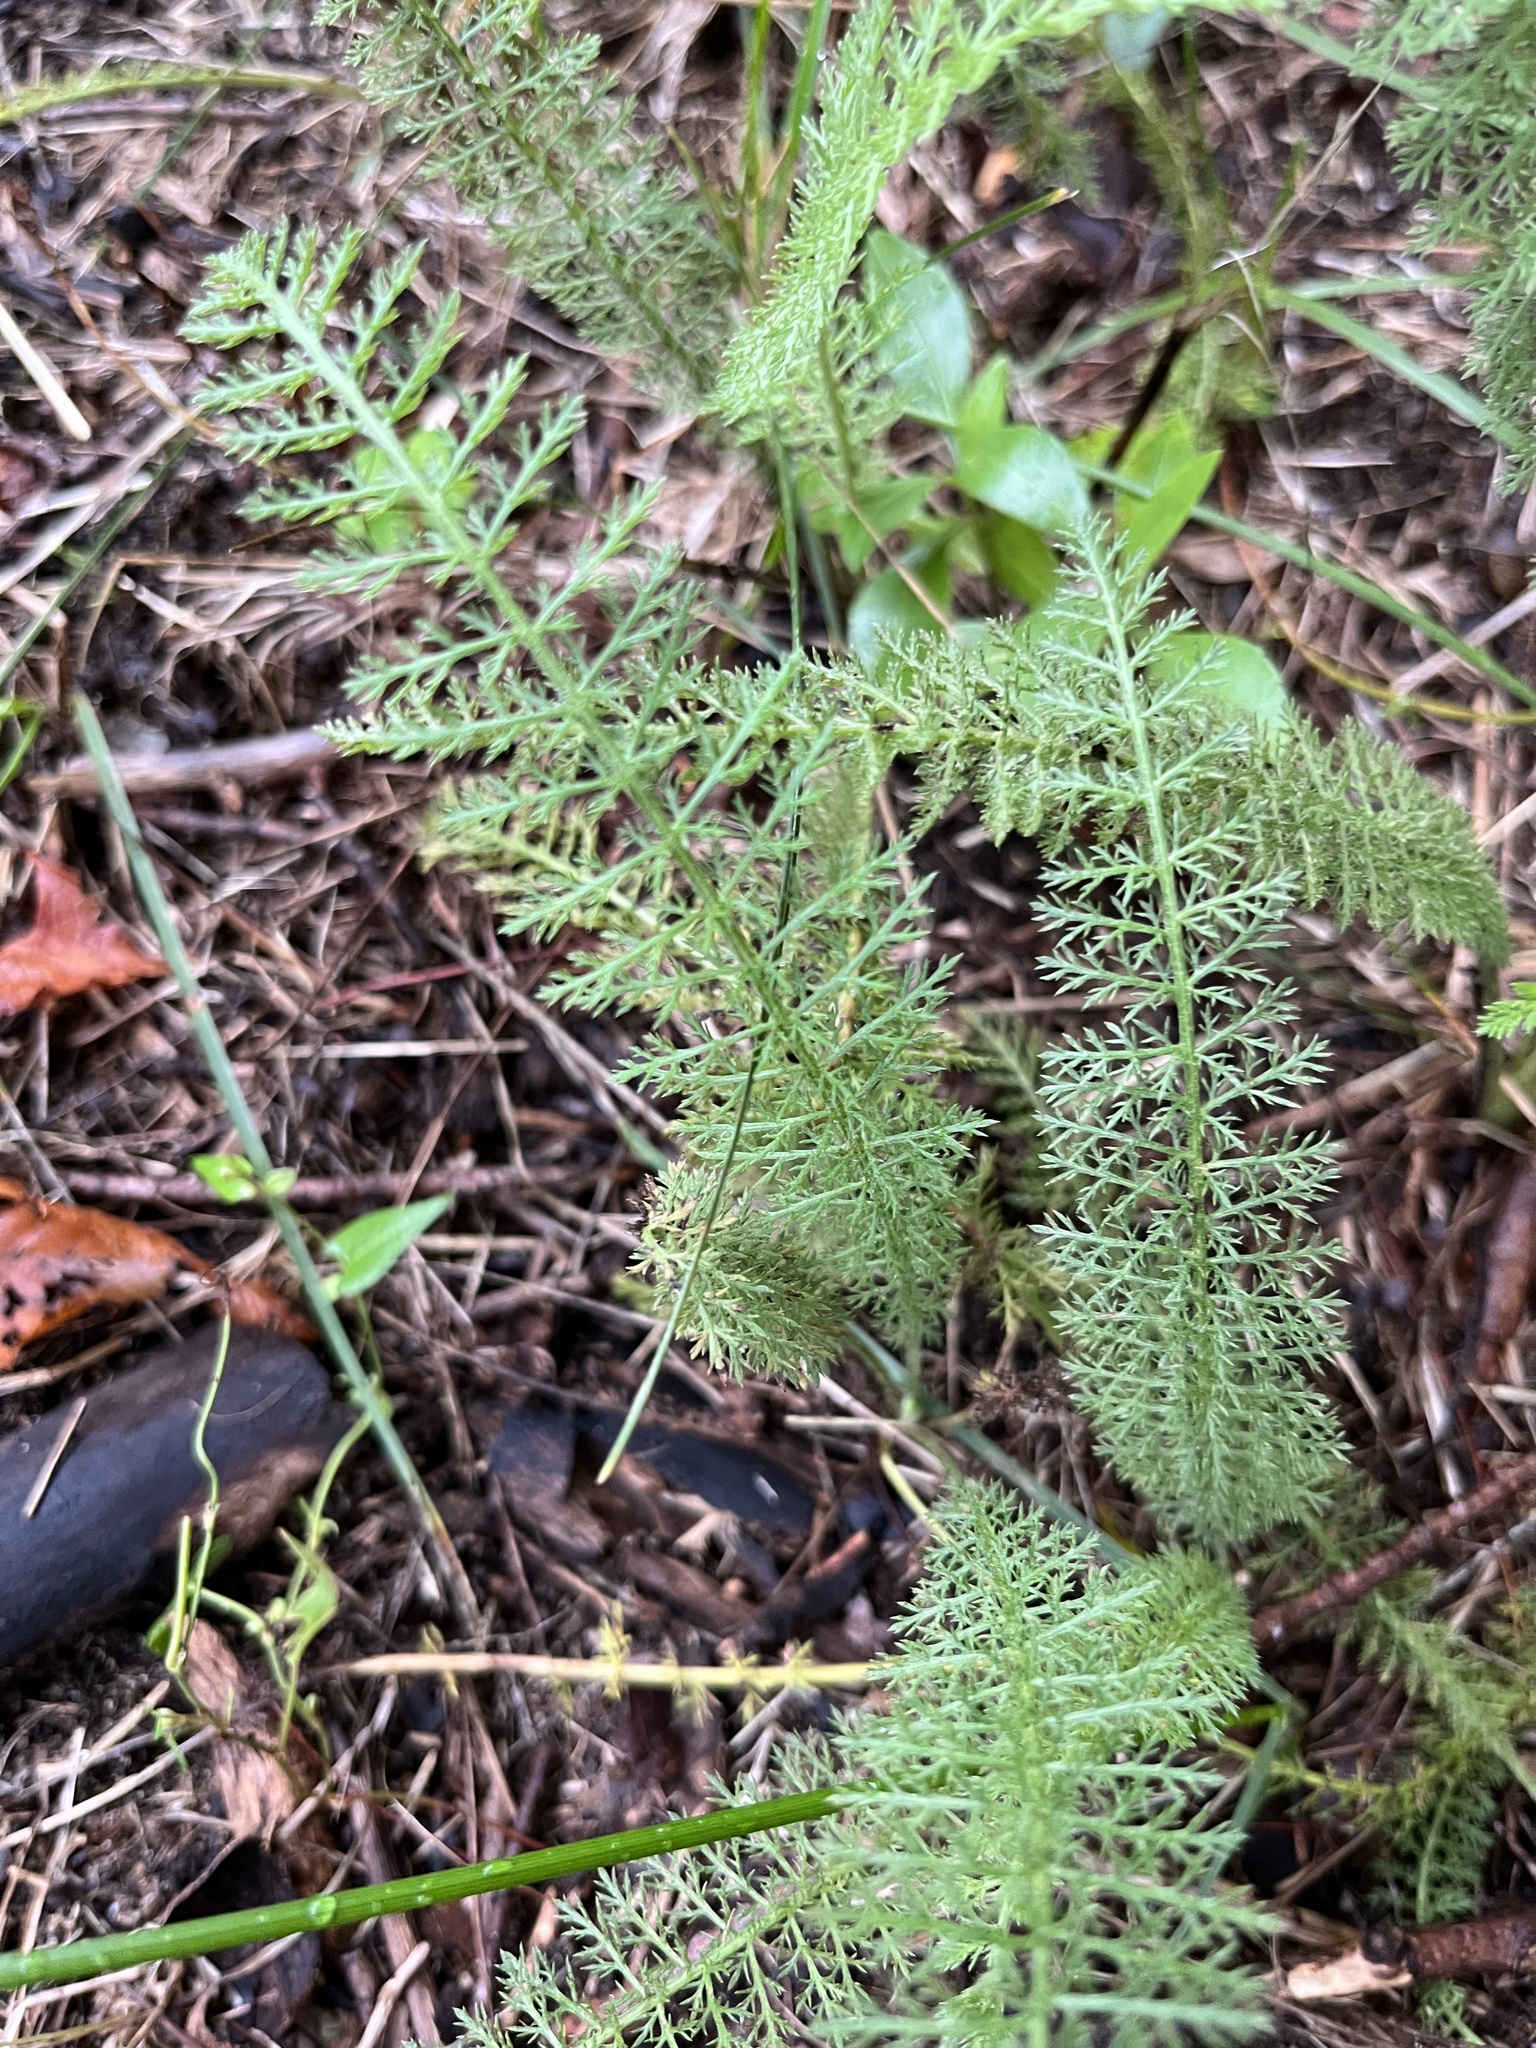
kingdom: Plantae
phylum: Tracheophyta
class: Magnoliopsida
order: Asterales
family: Asteraceae
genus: Achillea
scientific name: Achillea millefolium
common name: Yarrow
